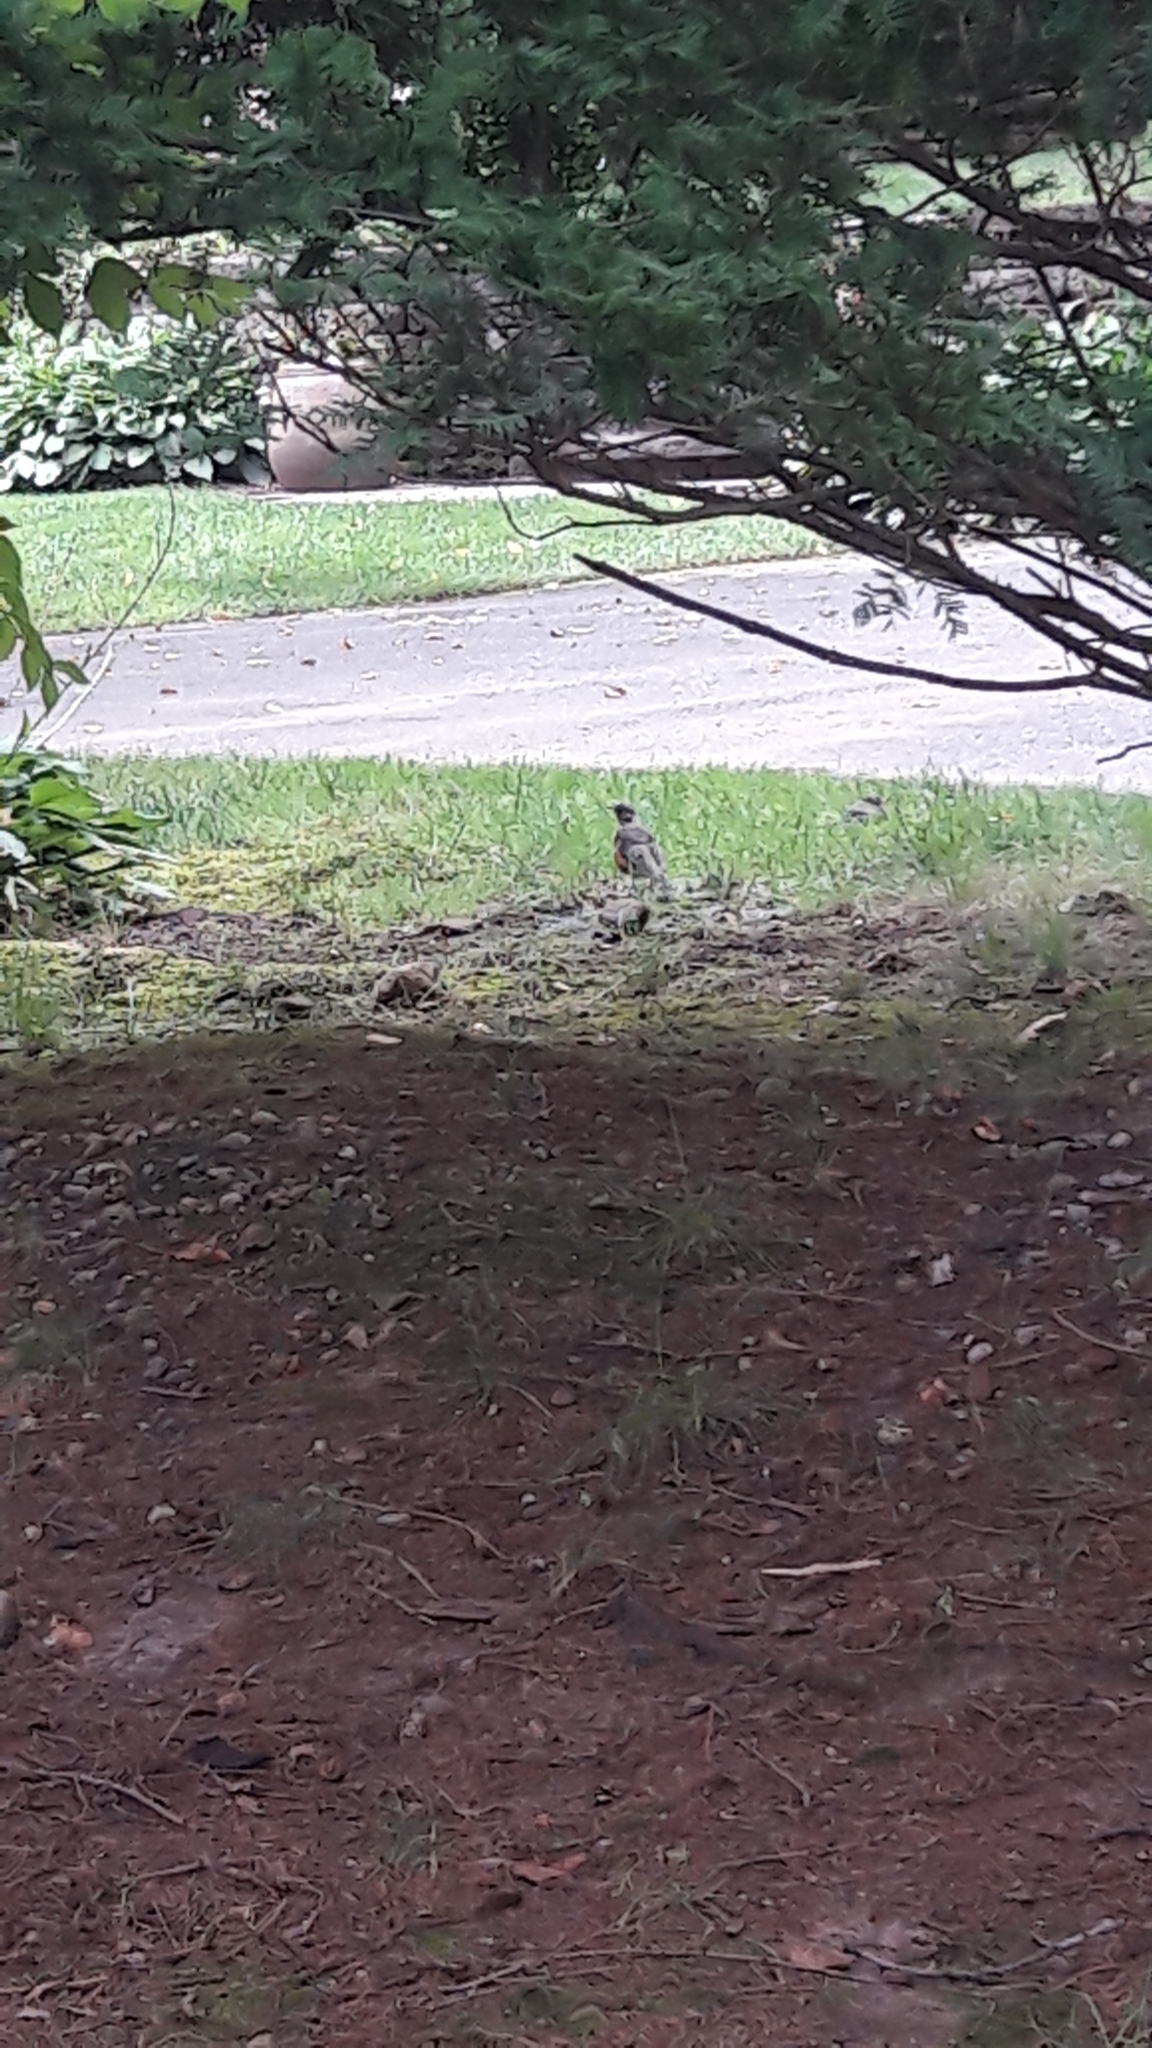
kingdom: Animalia
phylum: Chordata
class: Aves
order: Passeriformes
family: Turdidae
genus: Turdus
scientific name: Turdus migratorius
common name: American robin
